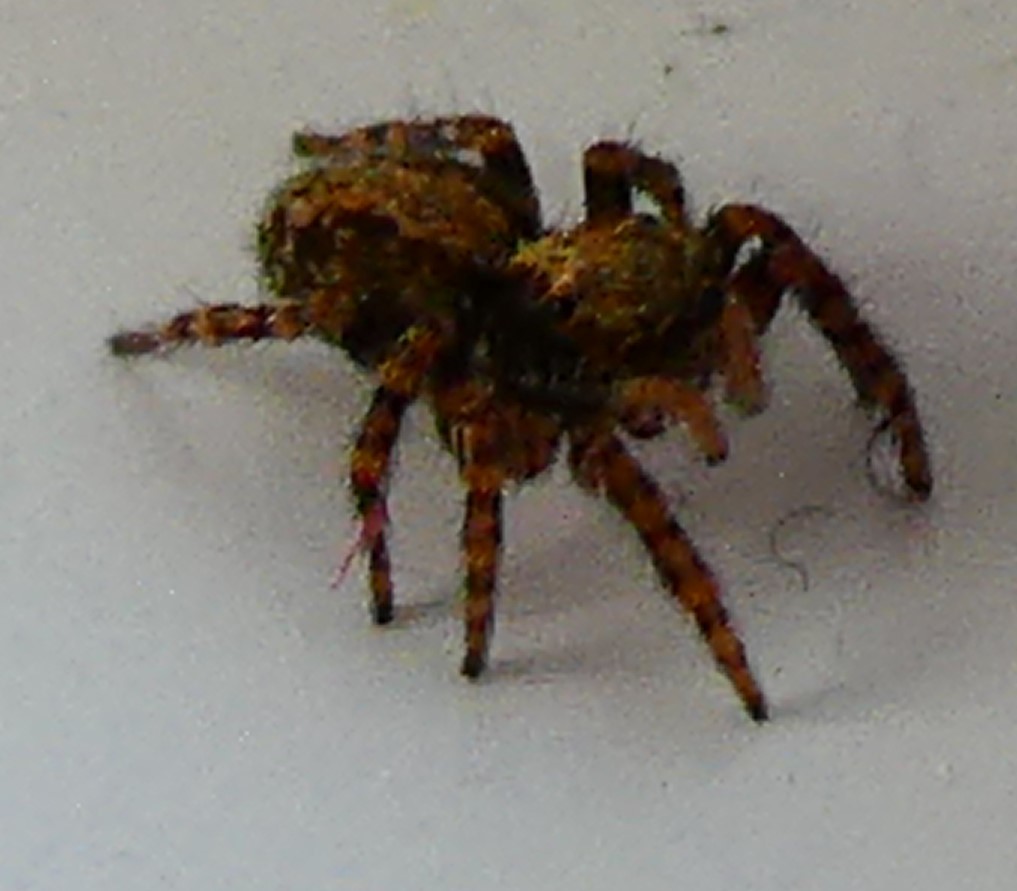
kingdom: Animalia
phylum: Arthropoda
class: Arachnida
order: Araneae
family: Salticidae
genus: Pseudeuophrys
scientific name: Pseudeuophrys lanigera
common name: Jumping spider
